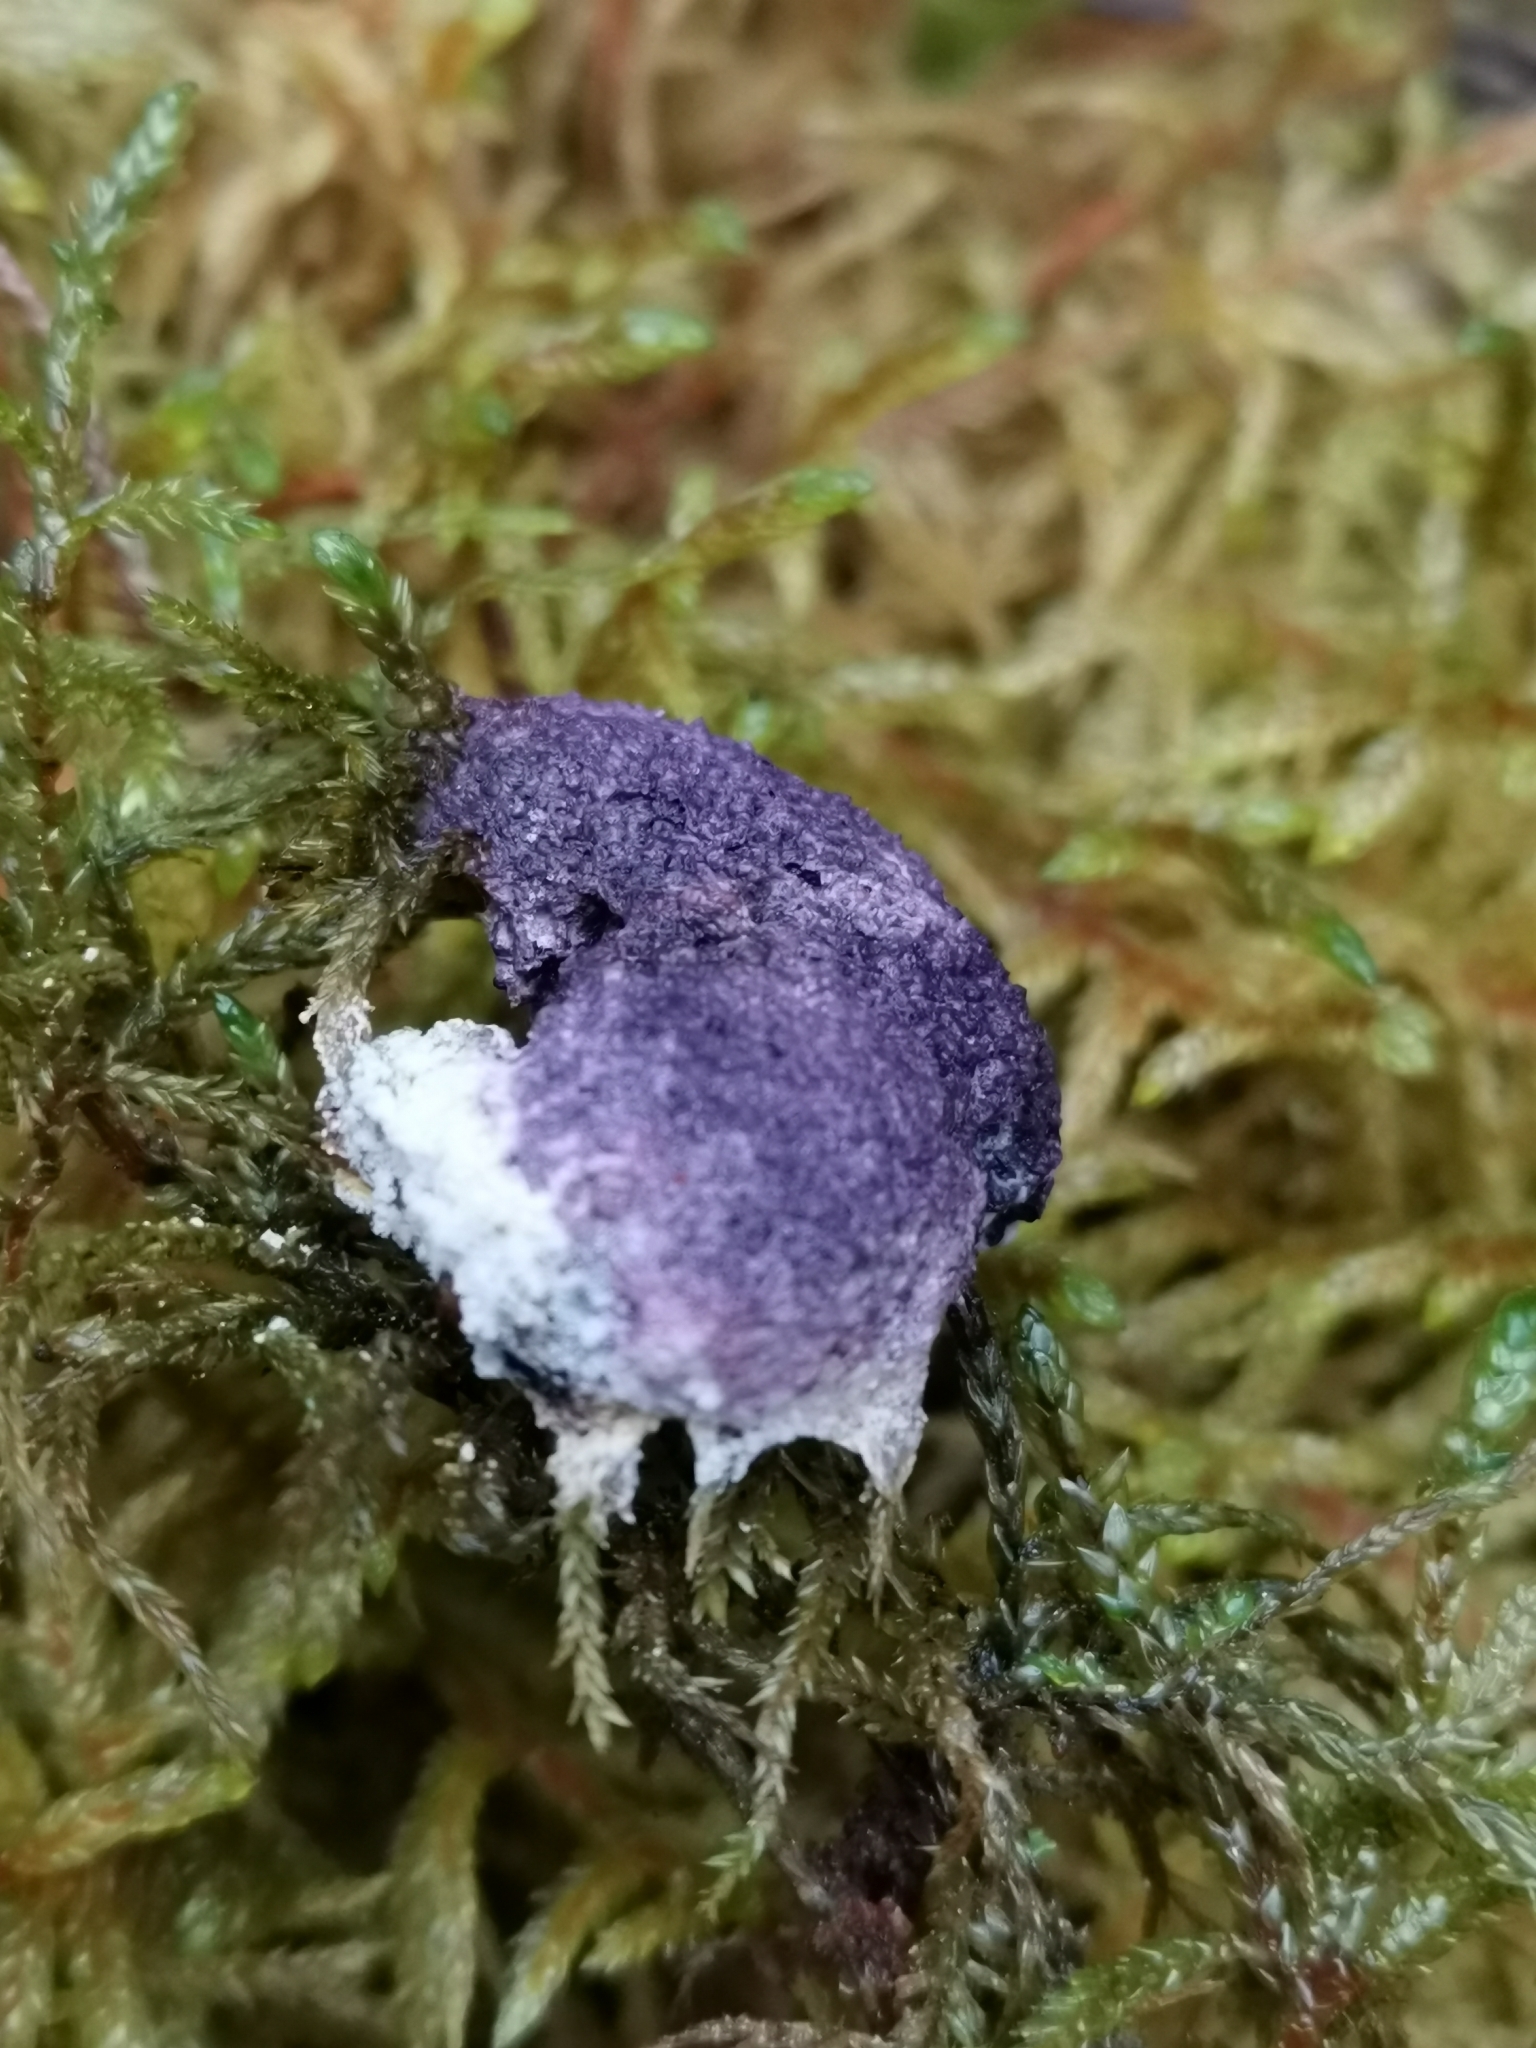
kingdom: Fungi
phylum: Ascomycota
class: Sordariomycetes
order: Hypocreales
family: Bionectriaceae
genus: Nectriopsis
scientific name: Nectriopsis violacea
